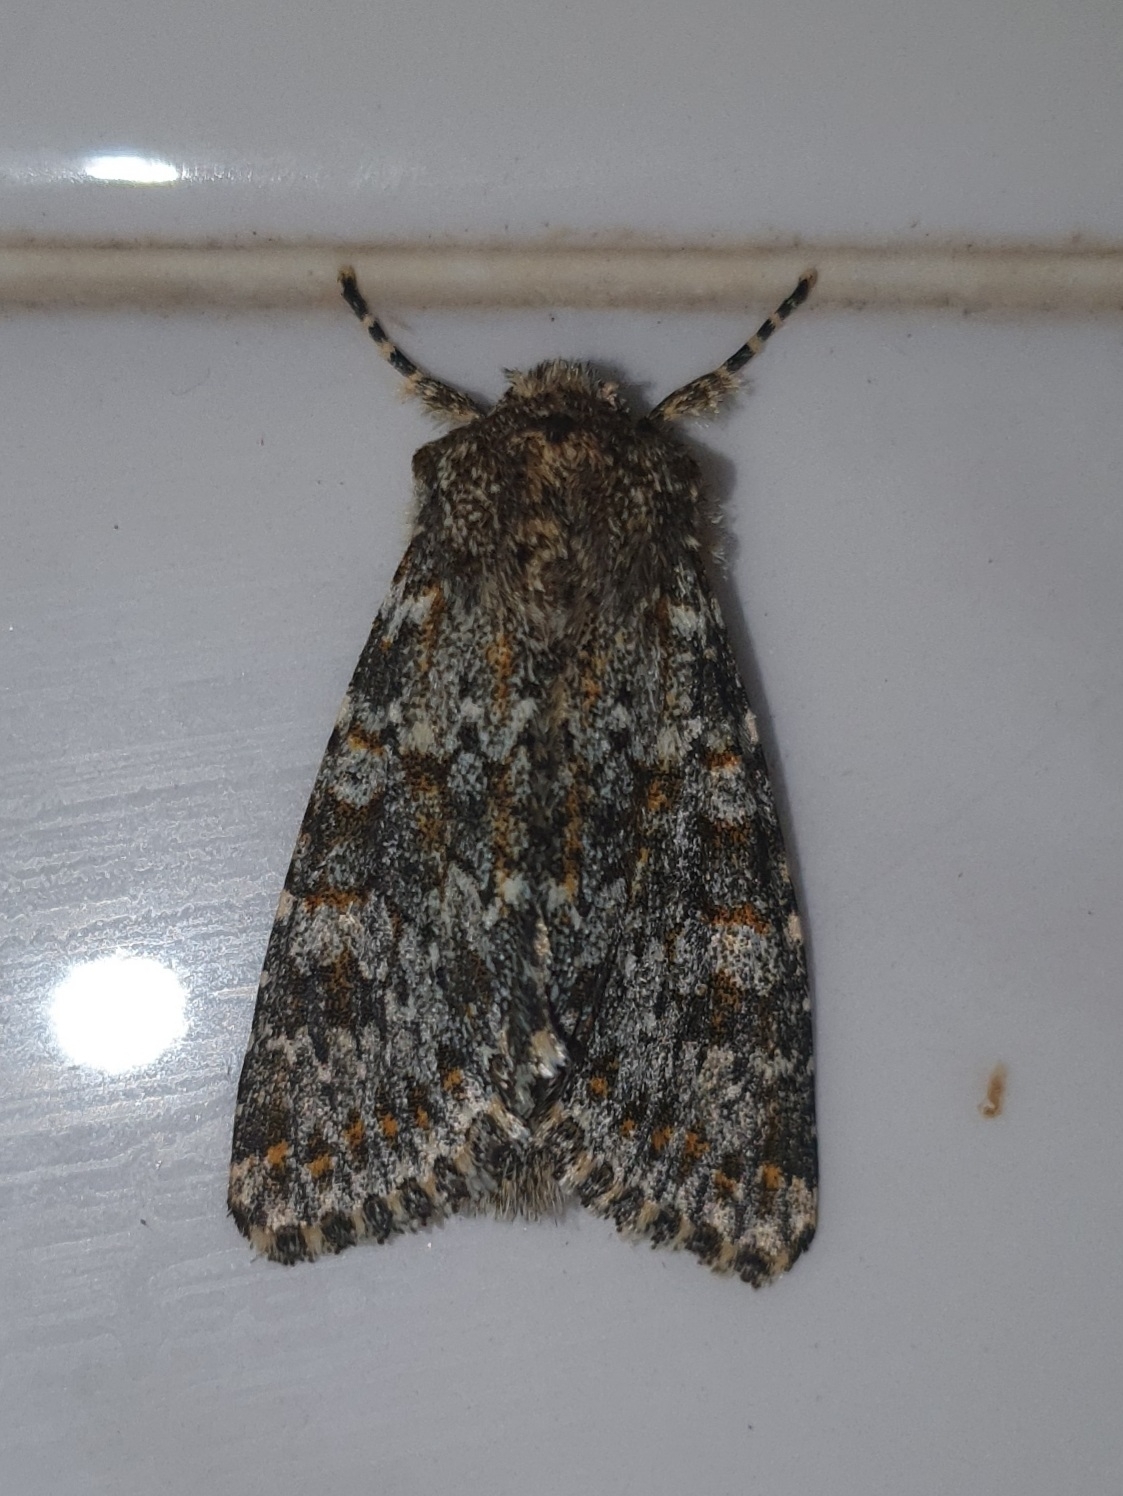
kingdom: Animalia
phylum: Arthropoda
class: Insecta
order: Lepidoptera
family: Noctuidae
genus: Polymixis
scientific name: Polymixis flavicincta
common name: Large ranunculus
